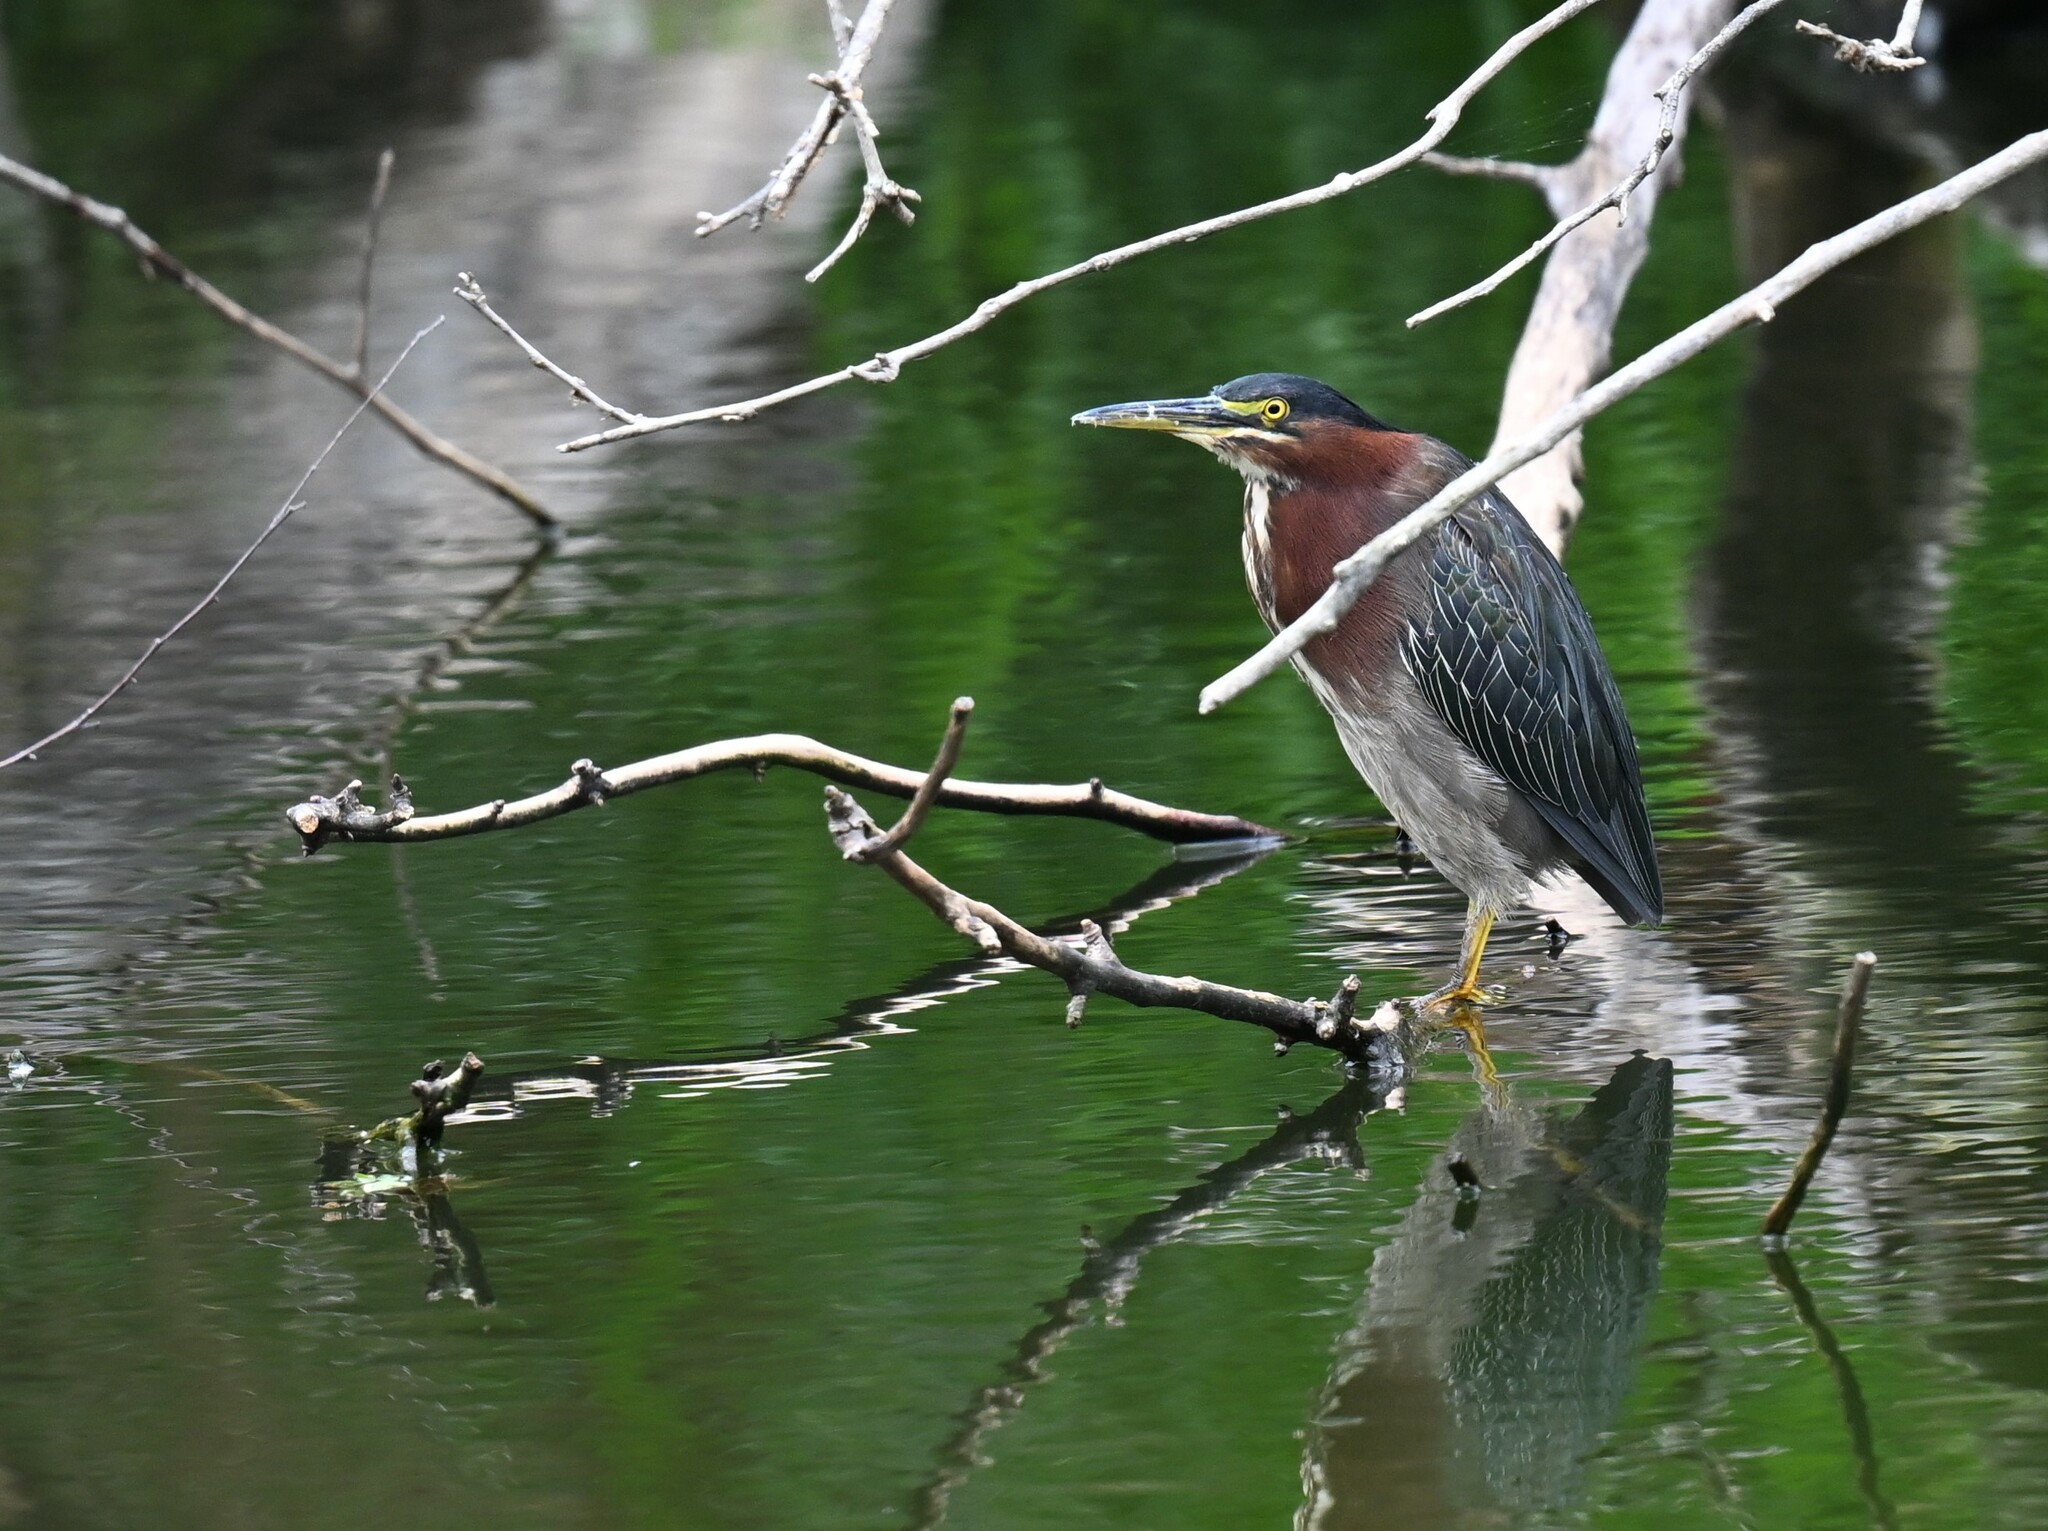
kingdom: Animalia
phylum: Chordata
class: Aves
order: Pelecaniformes
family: Ardeidae
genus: Butorides
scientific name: Butorides virescens
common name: Green heron
